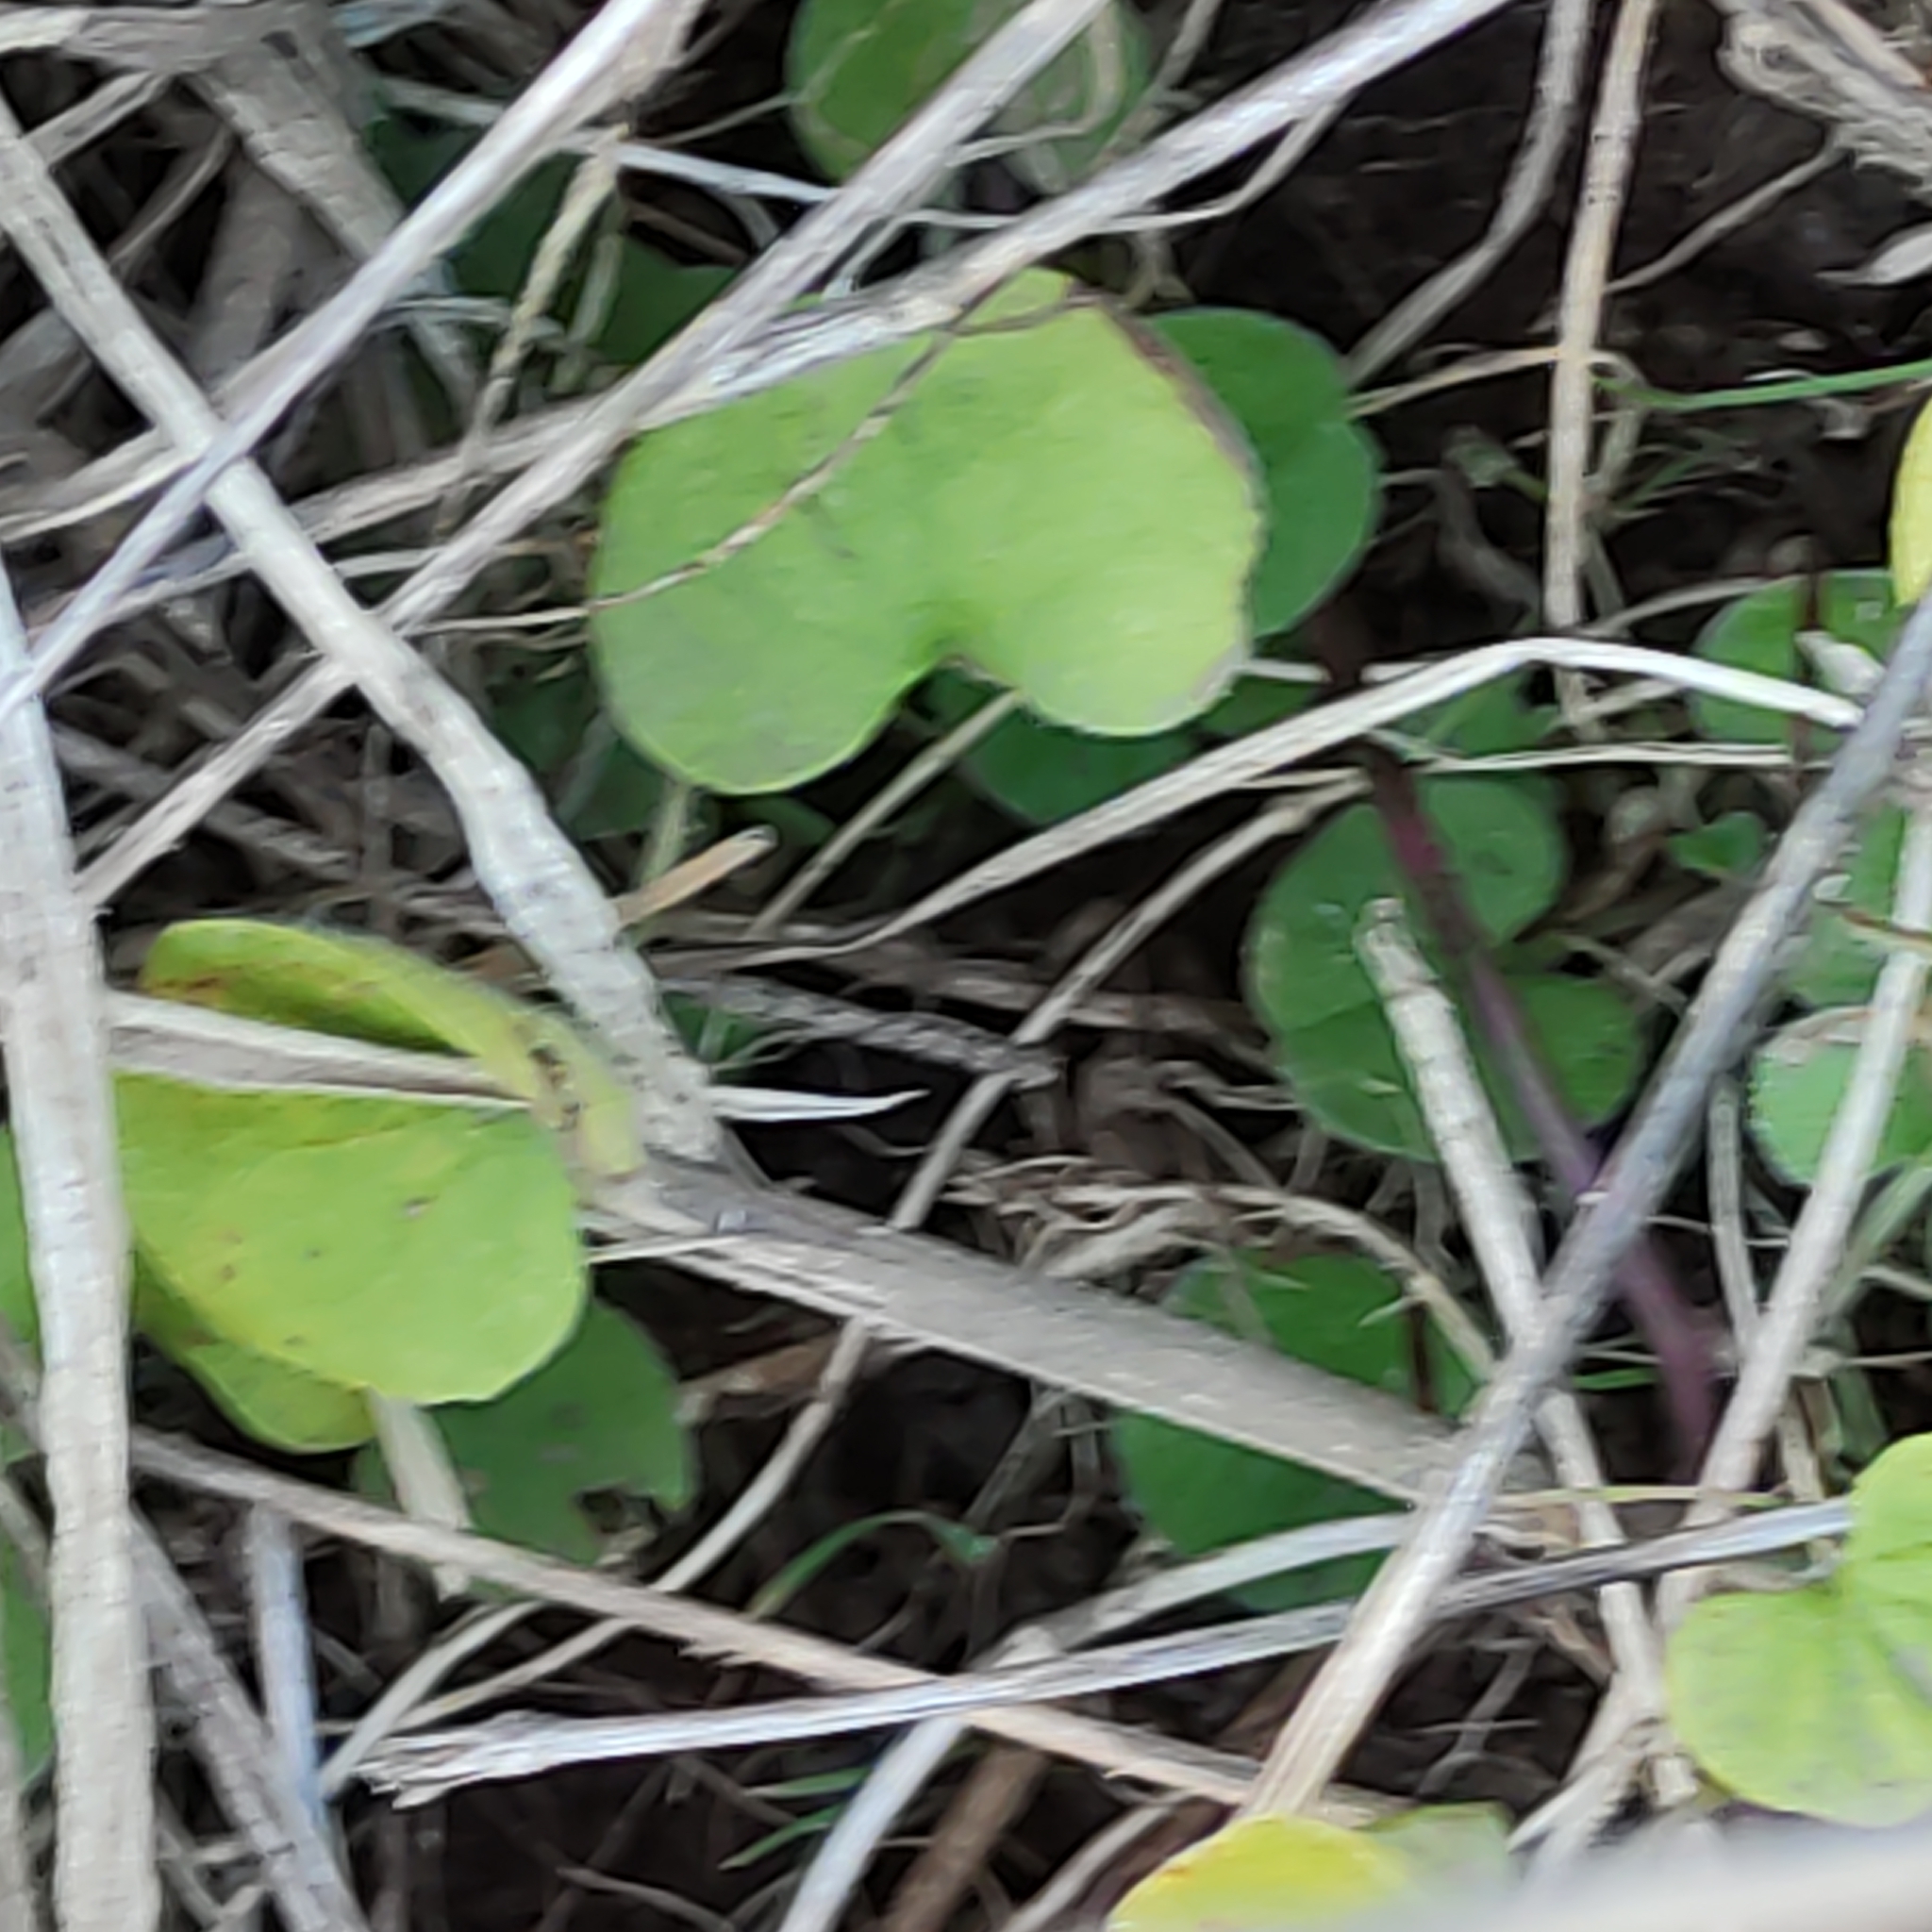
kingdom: Plantae
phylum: Tracheophyta
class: Magnoliopsida
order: Solanales
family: Convolvulaceae
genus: Dichondra
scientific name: Dichondra repens
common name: Kidneyweed
